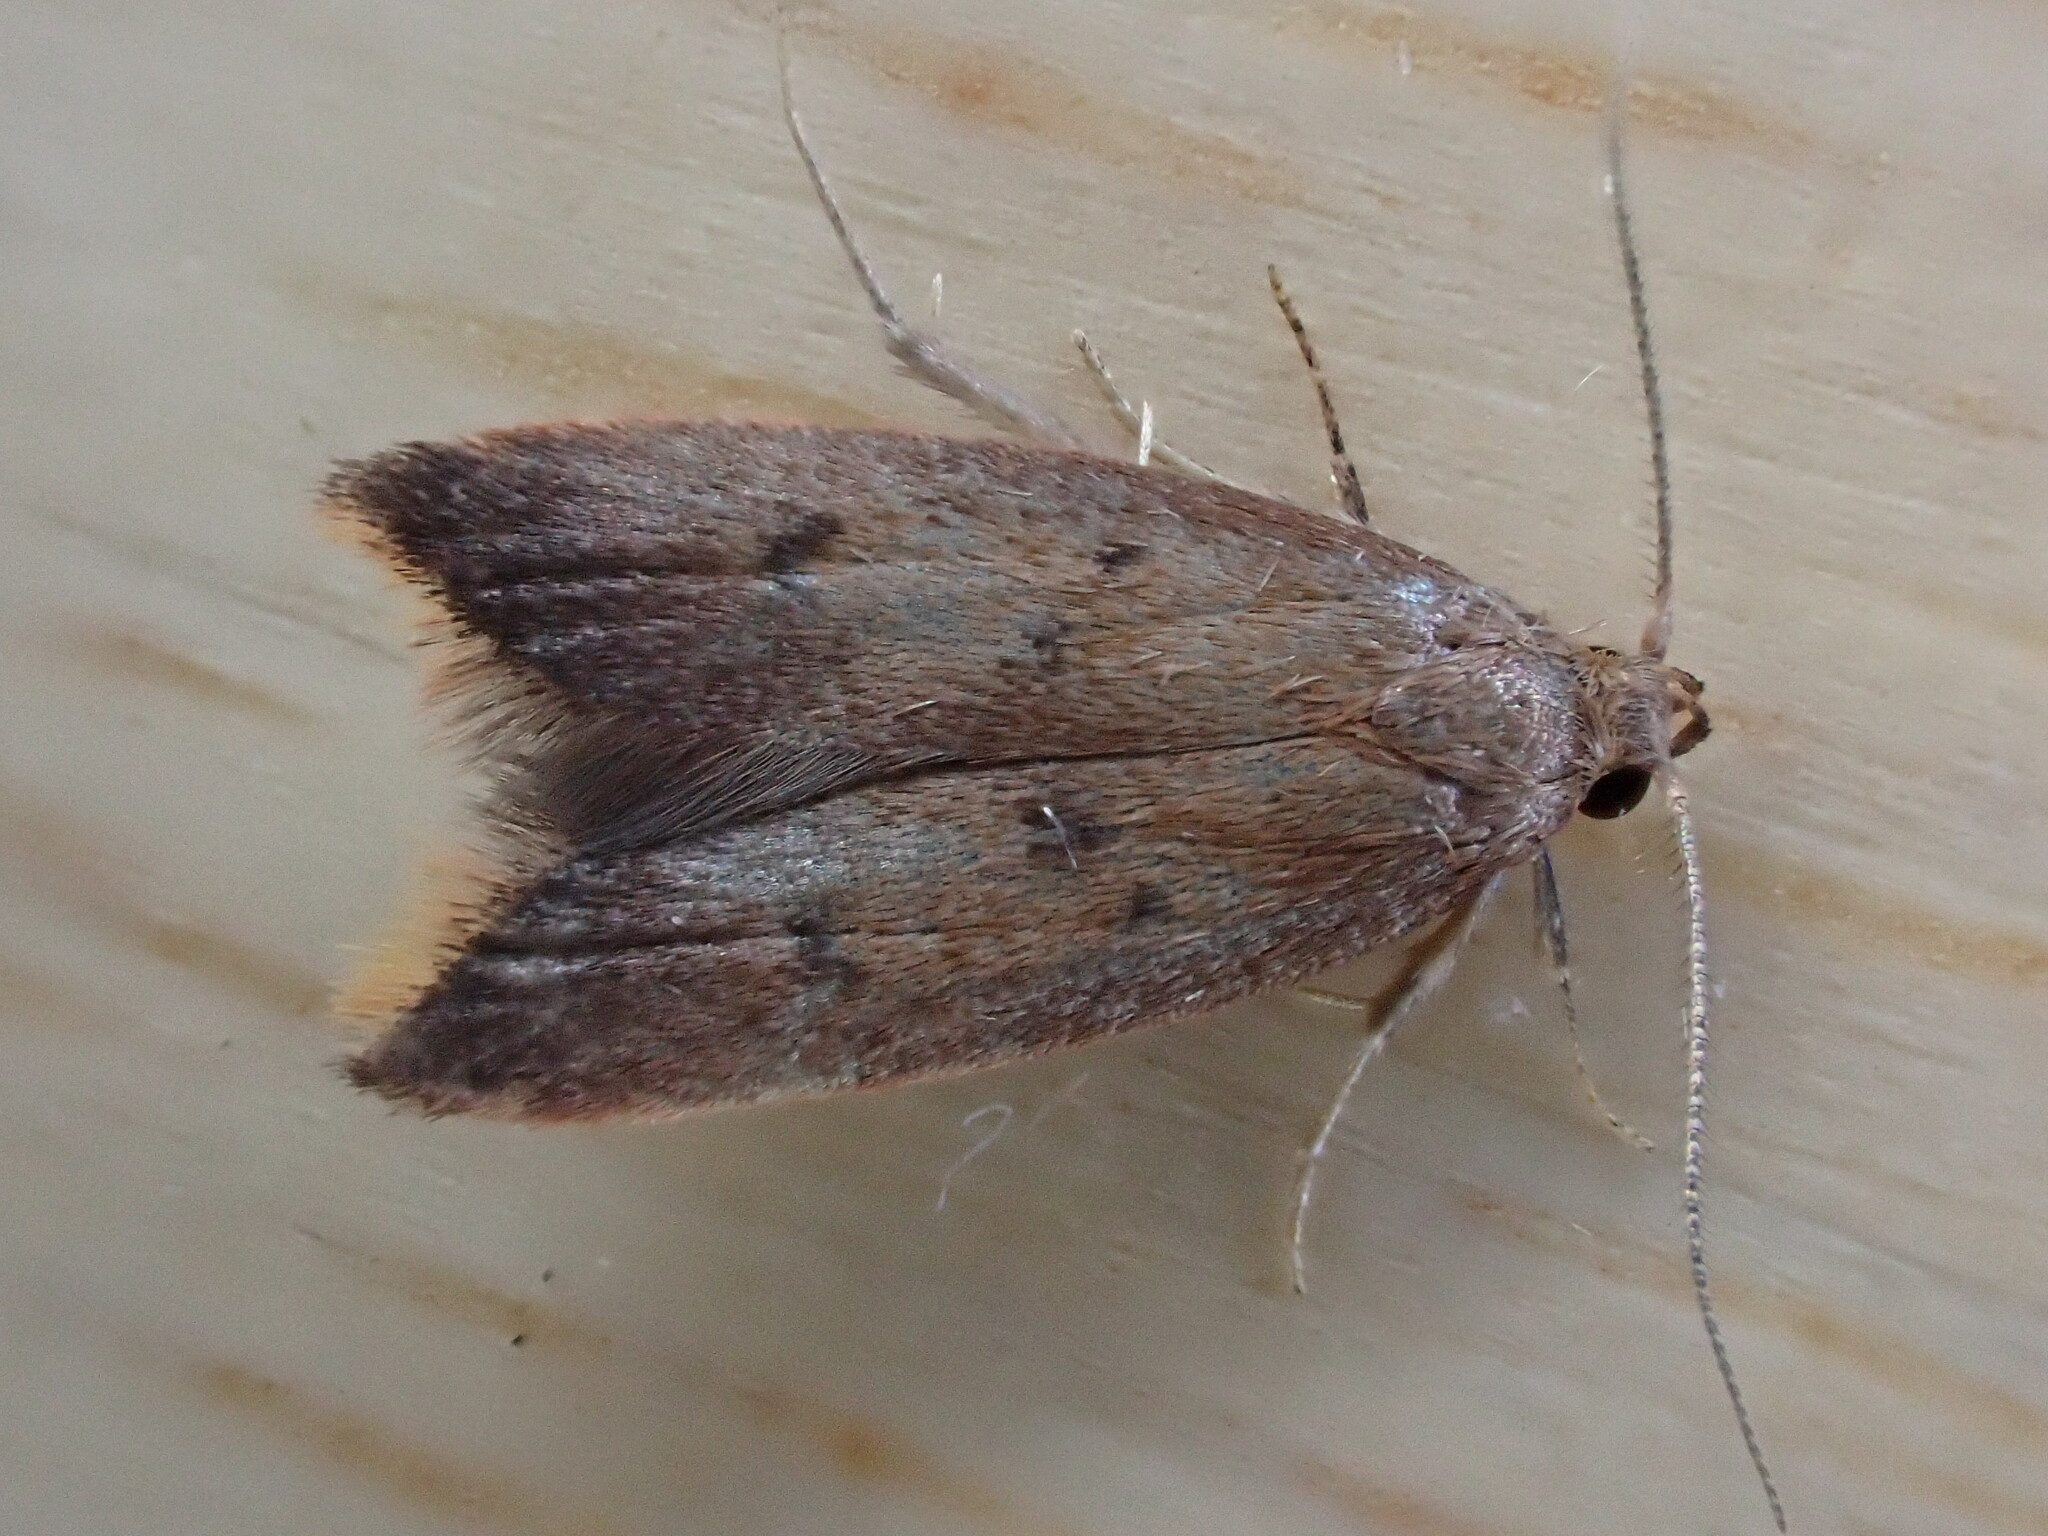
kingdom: Animalia
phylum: Arthropoda
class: Insecta
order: Lepidoptera
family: Oecophoridae
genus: Tachystola
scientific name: Tachystola acroxantha
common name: Ruddy streak
